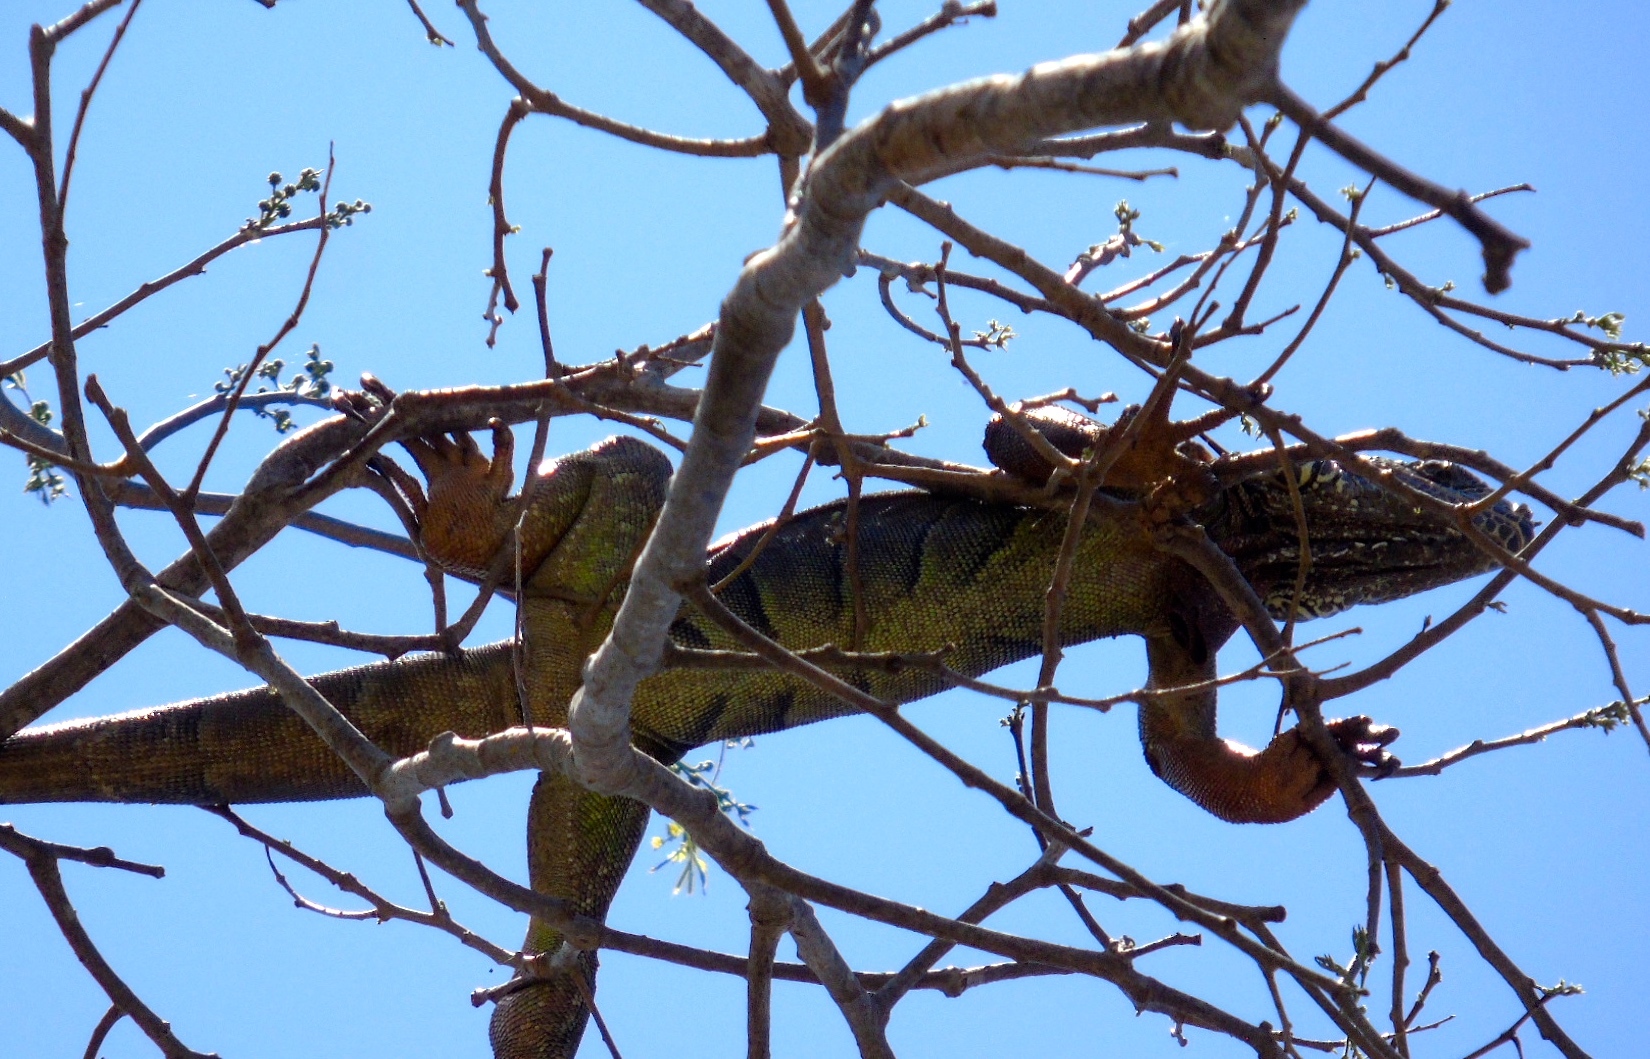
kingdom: Animalia
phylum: Chordata
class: Squamata
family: Iguanidae
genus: Iguana
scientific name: Iguana iguana
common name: Green iguana
